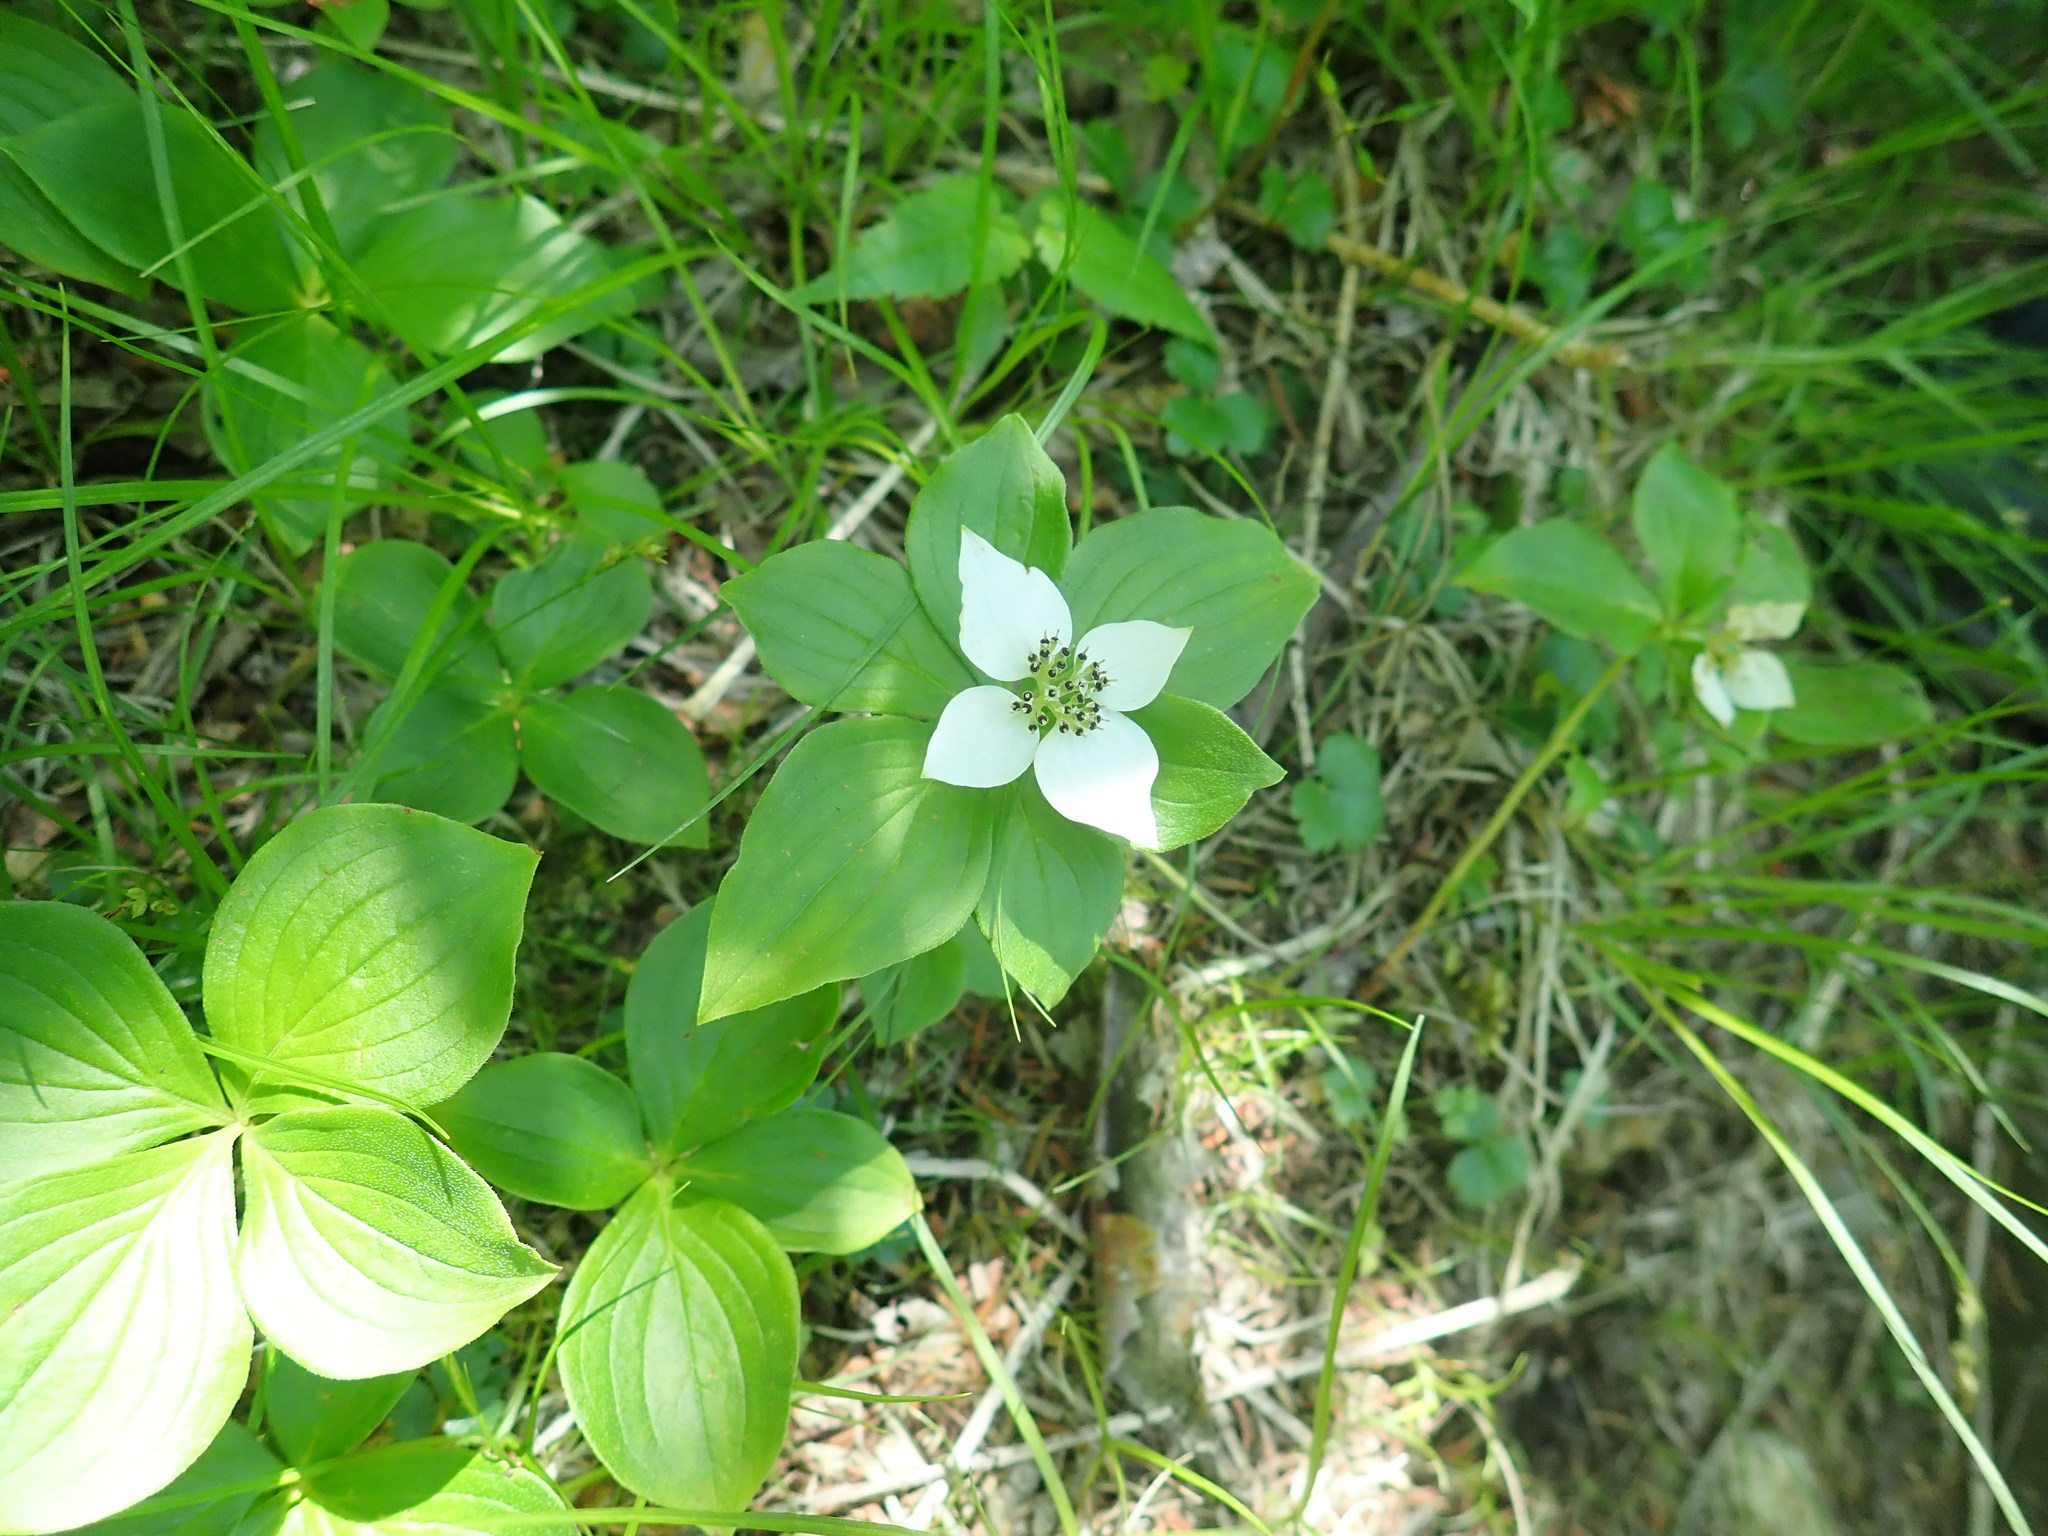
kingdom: Plantae
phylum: Tracheophyta
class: Magnoliopsida
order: Cornales
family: Cornaceae
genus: Cornus
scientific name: Cornus canadensis
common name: Creeping dogwood
